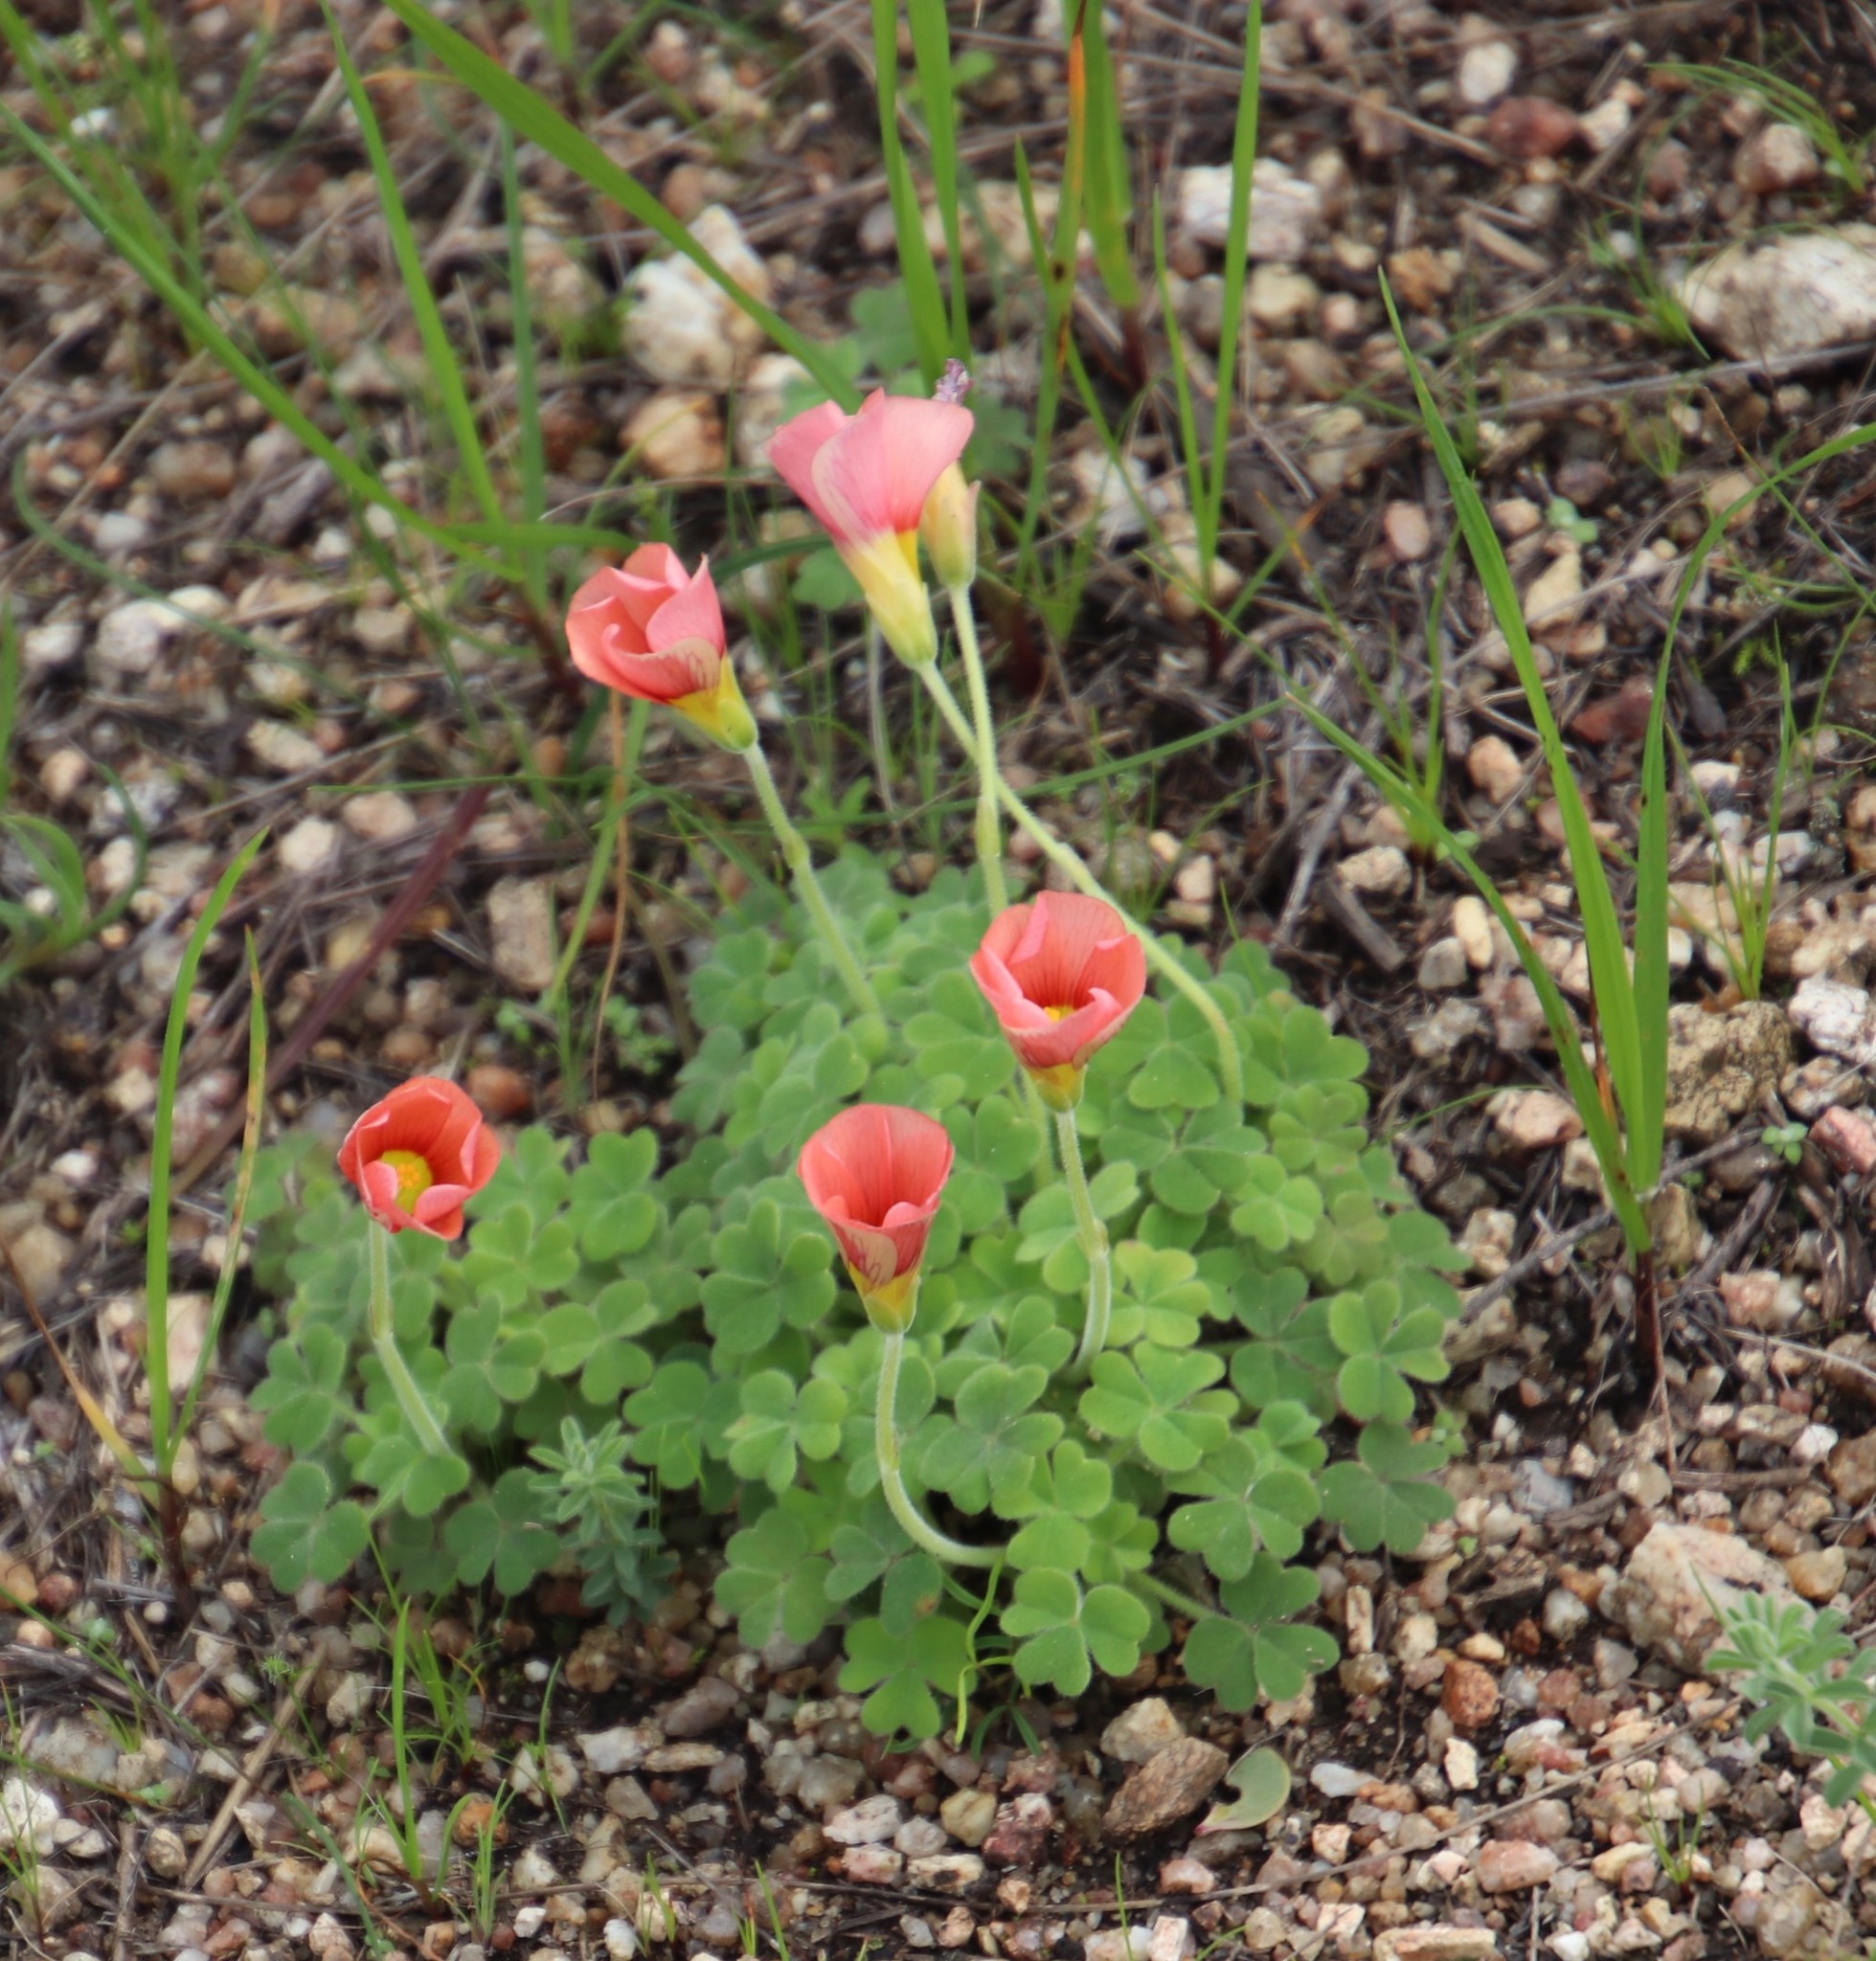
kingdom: Plantae
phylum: Tracheophyta
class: Magnoliopsida
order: Oxalidales
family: Oxalidaceae
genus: Oxalis
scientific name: Oxalis obtusa
